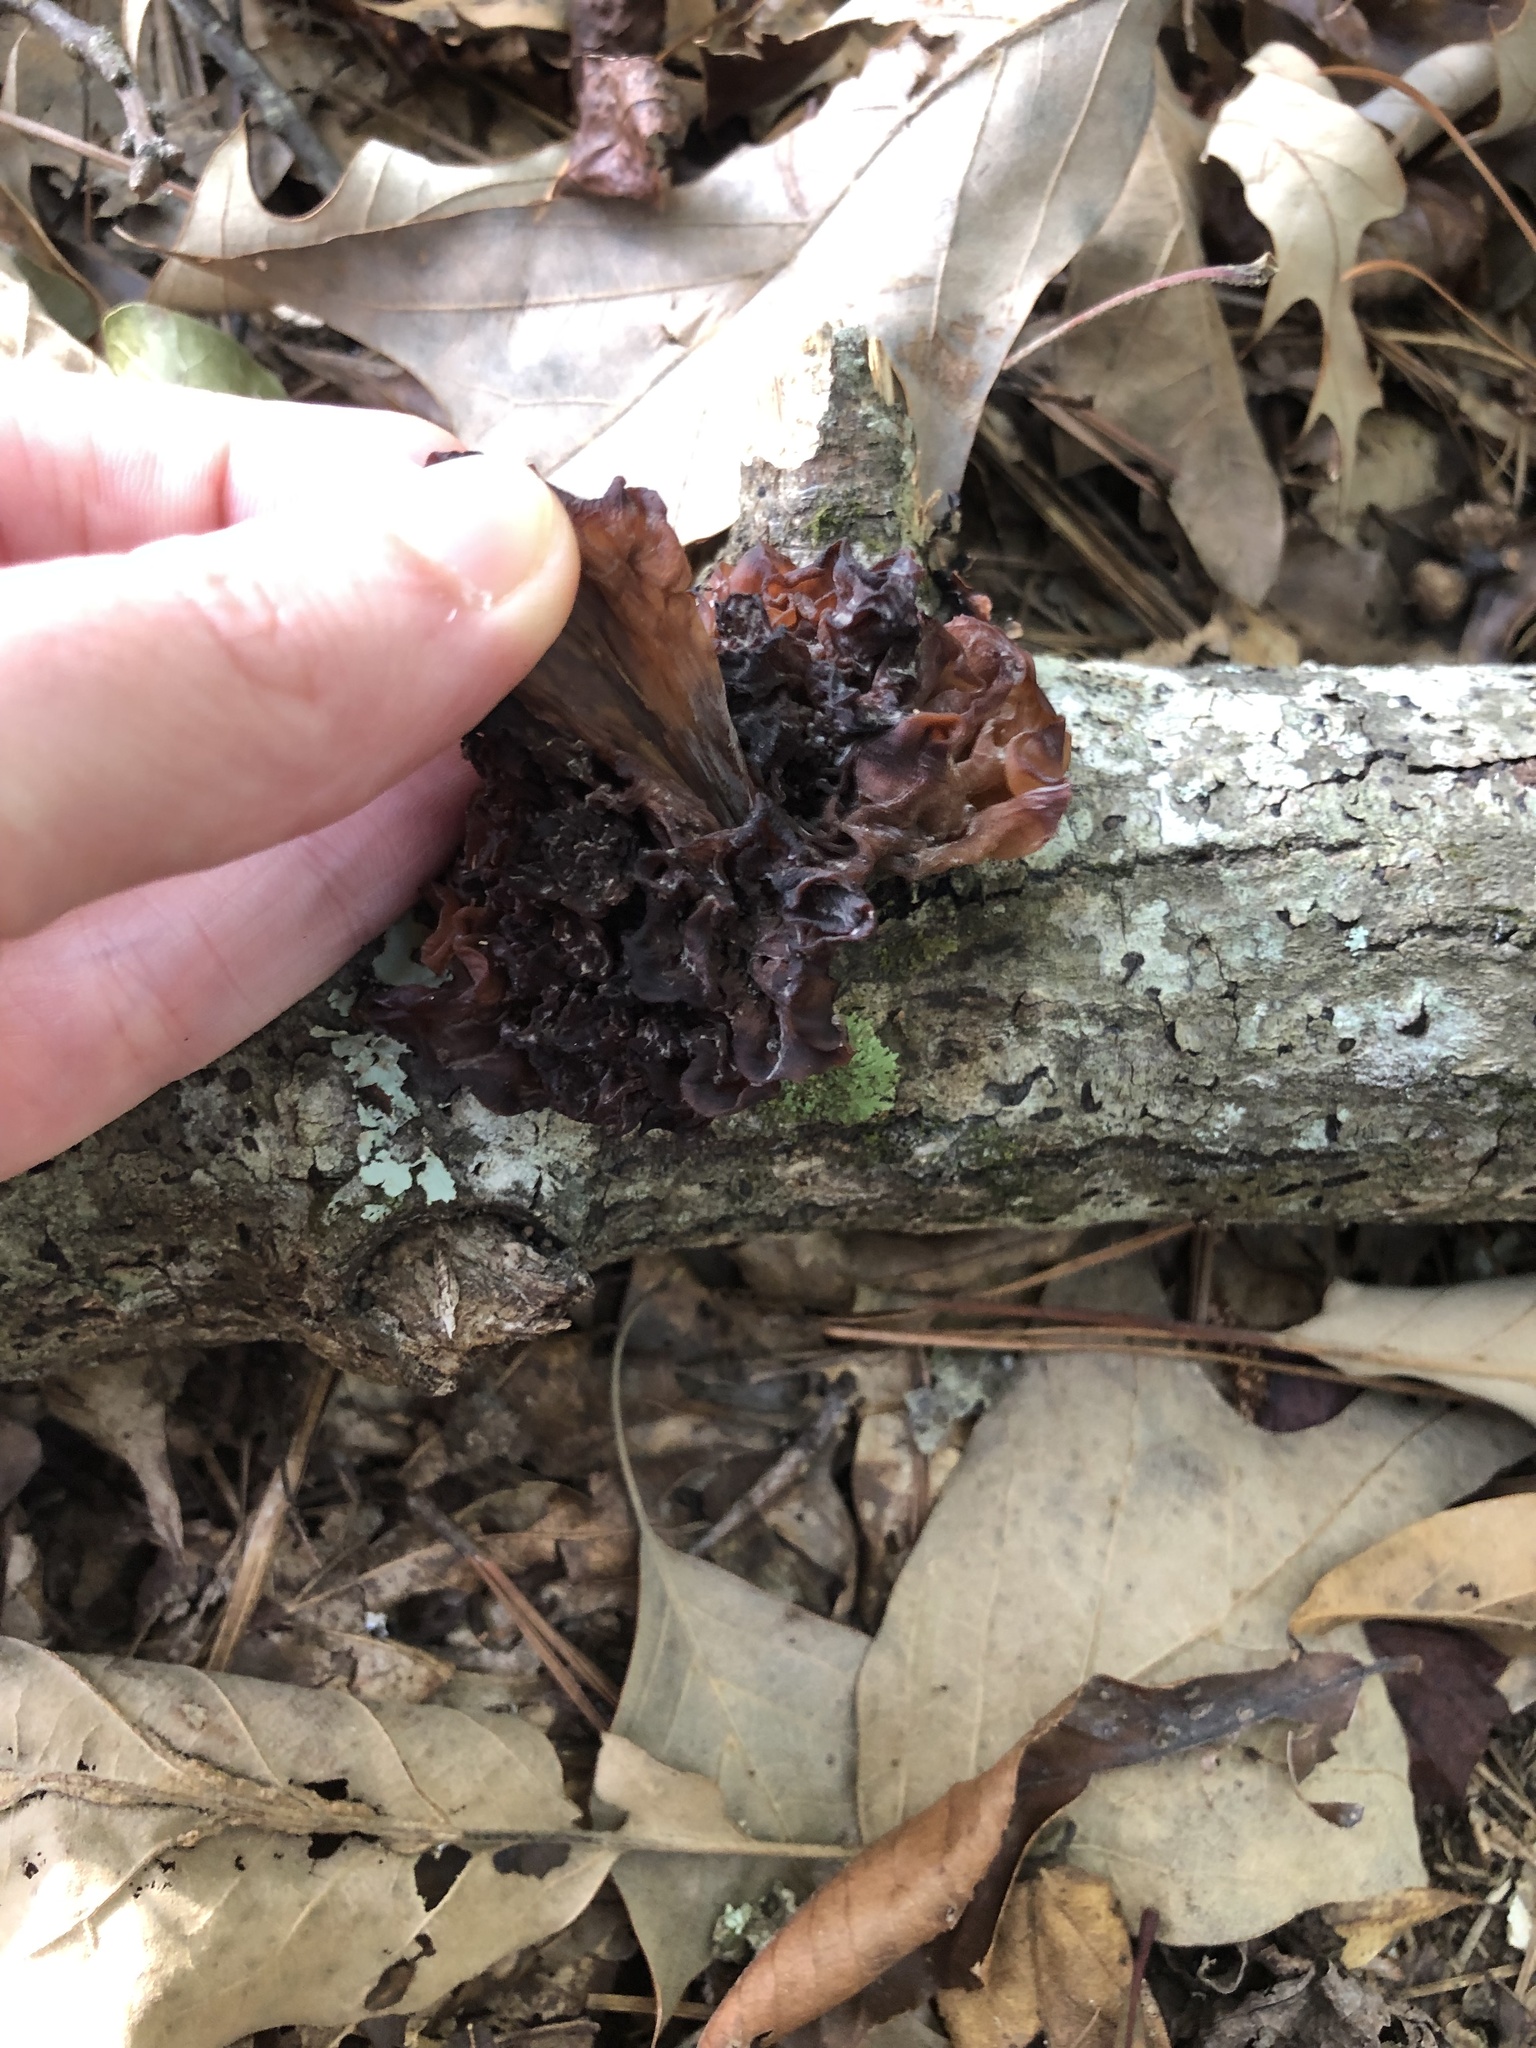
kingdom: Fungi
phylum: Basidiomycota
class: Tremellomycetes
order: Tremellales
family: Tremellaceae
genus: Phaeotremella
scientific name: Phaeotremella foliacea
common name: Leafy brain
